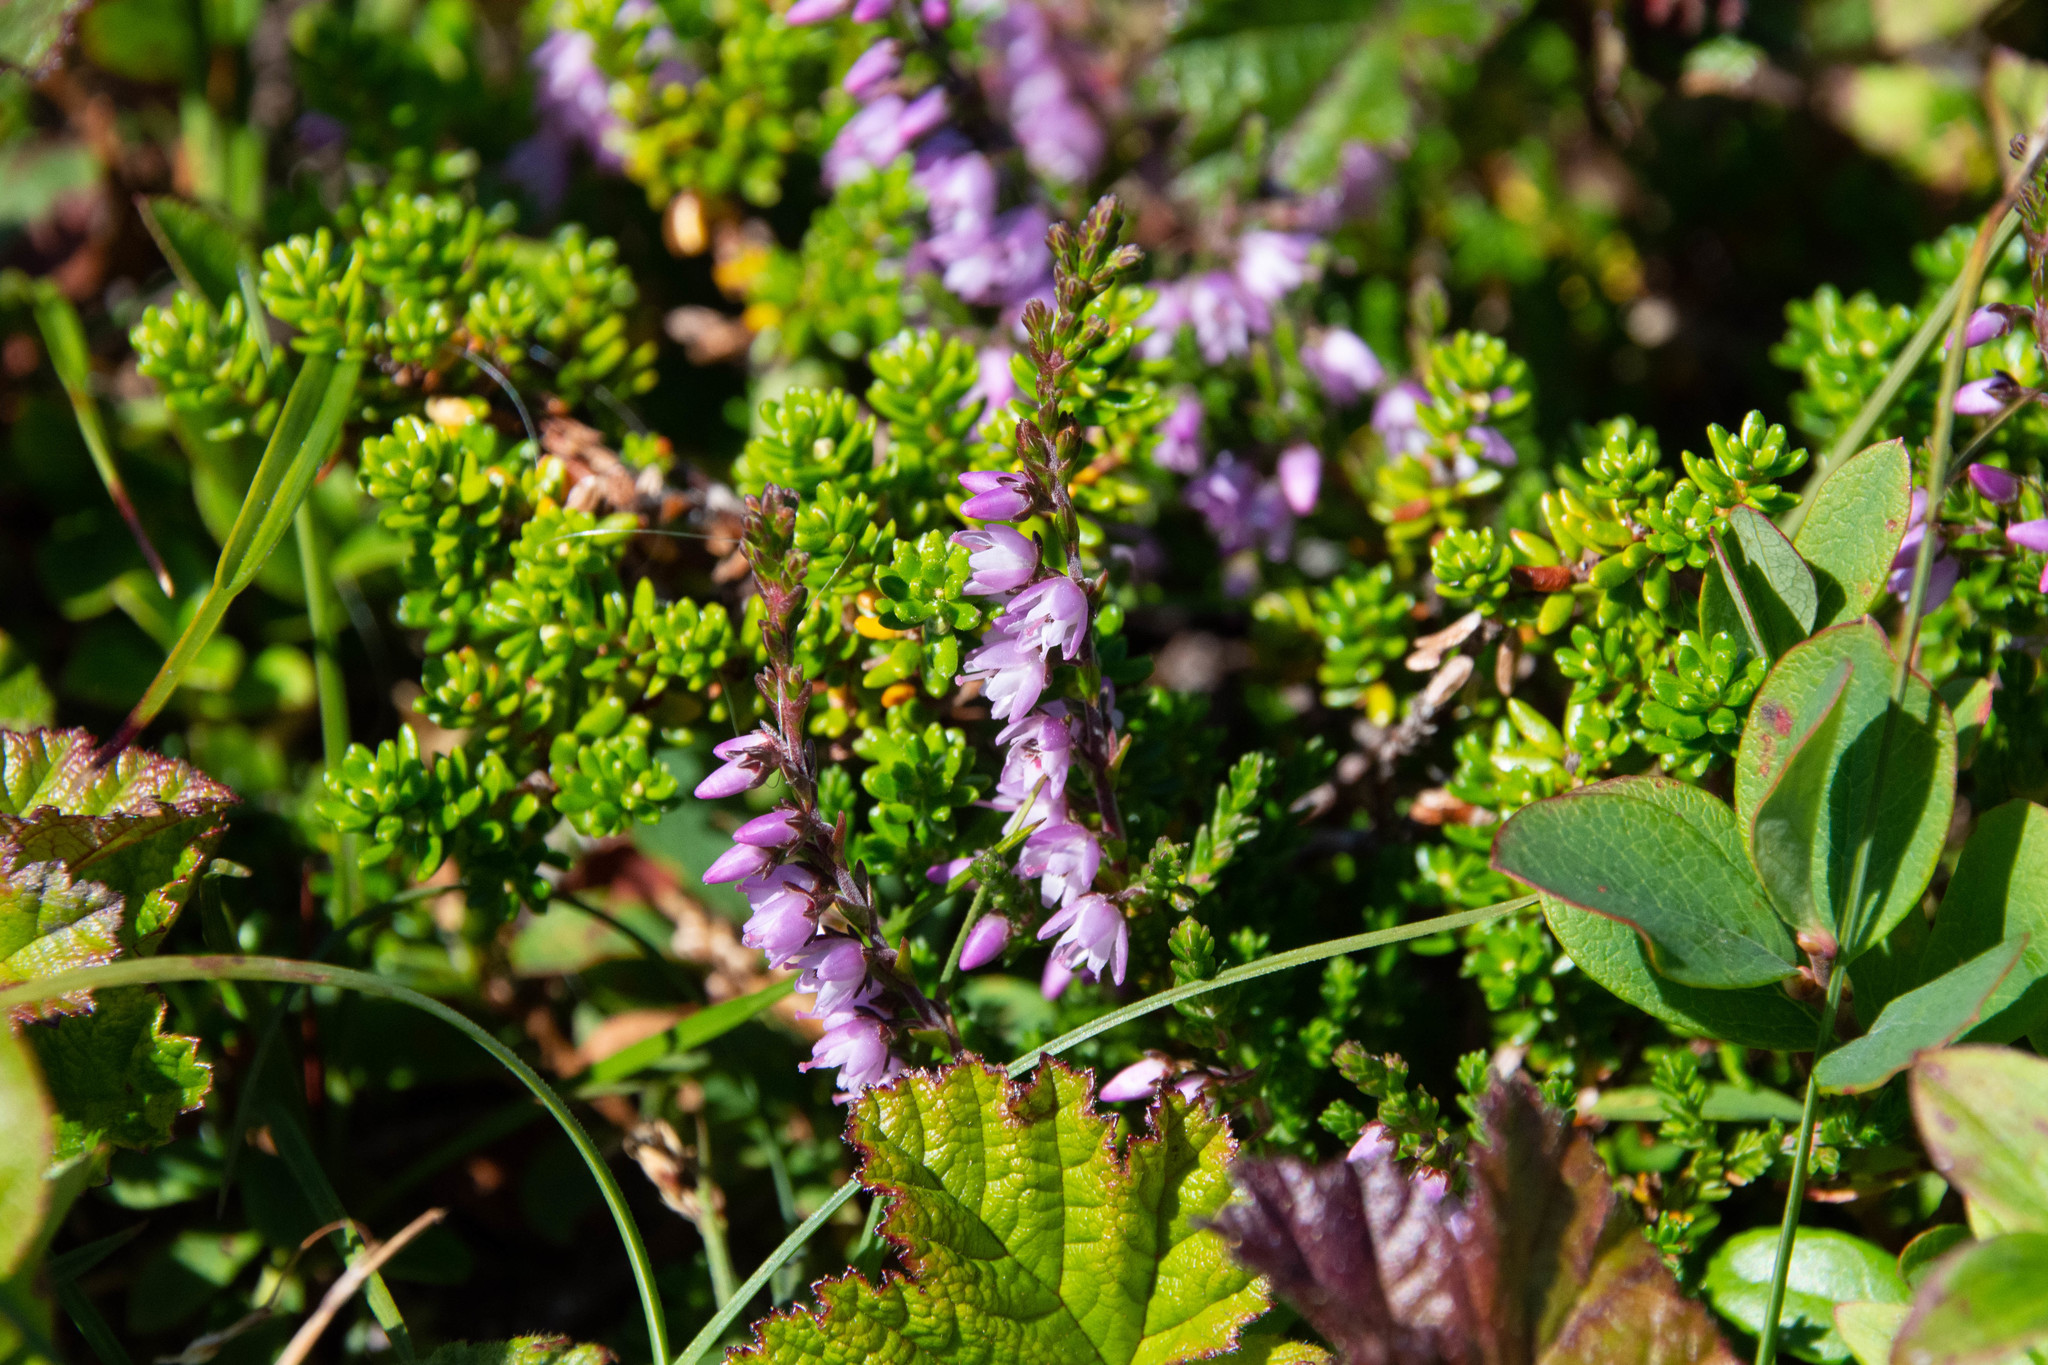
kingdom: Plantae
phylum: Tracheophyta
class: Magnoliopsida
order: Ericales
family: Ericaceae
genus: Calluna
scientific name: Calluna vulgaris
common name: Heather
